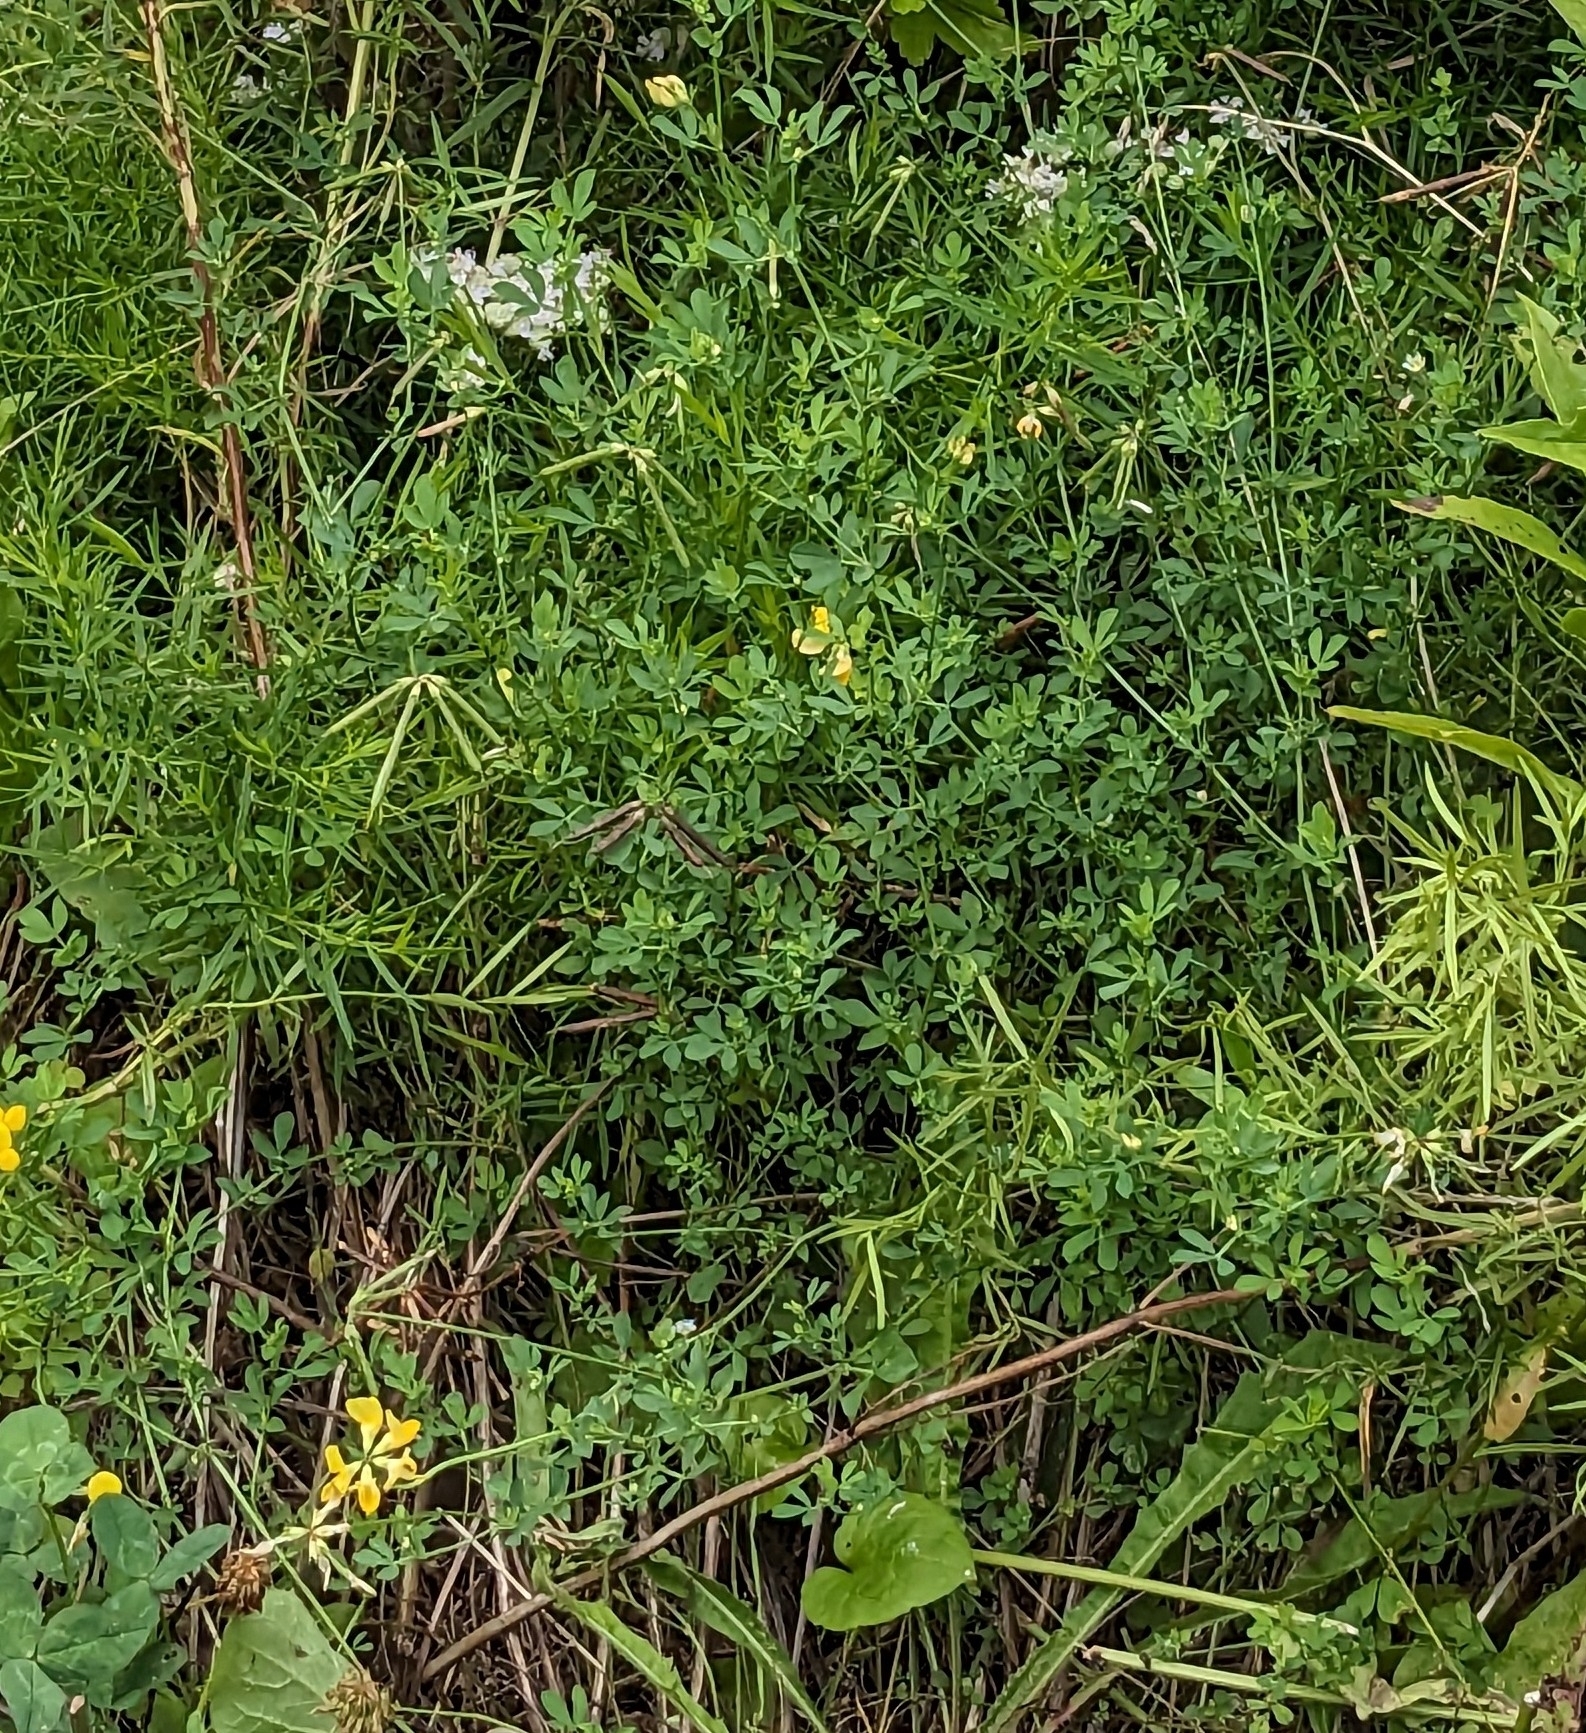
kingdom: Plantae
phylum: Tracheophyta
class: Magnoliopsida
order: Fabales
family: Fabaceae
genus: Lotus
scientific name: Lotus corniculatus
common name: Common bird's-foot-trefoil
